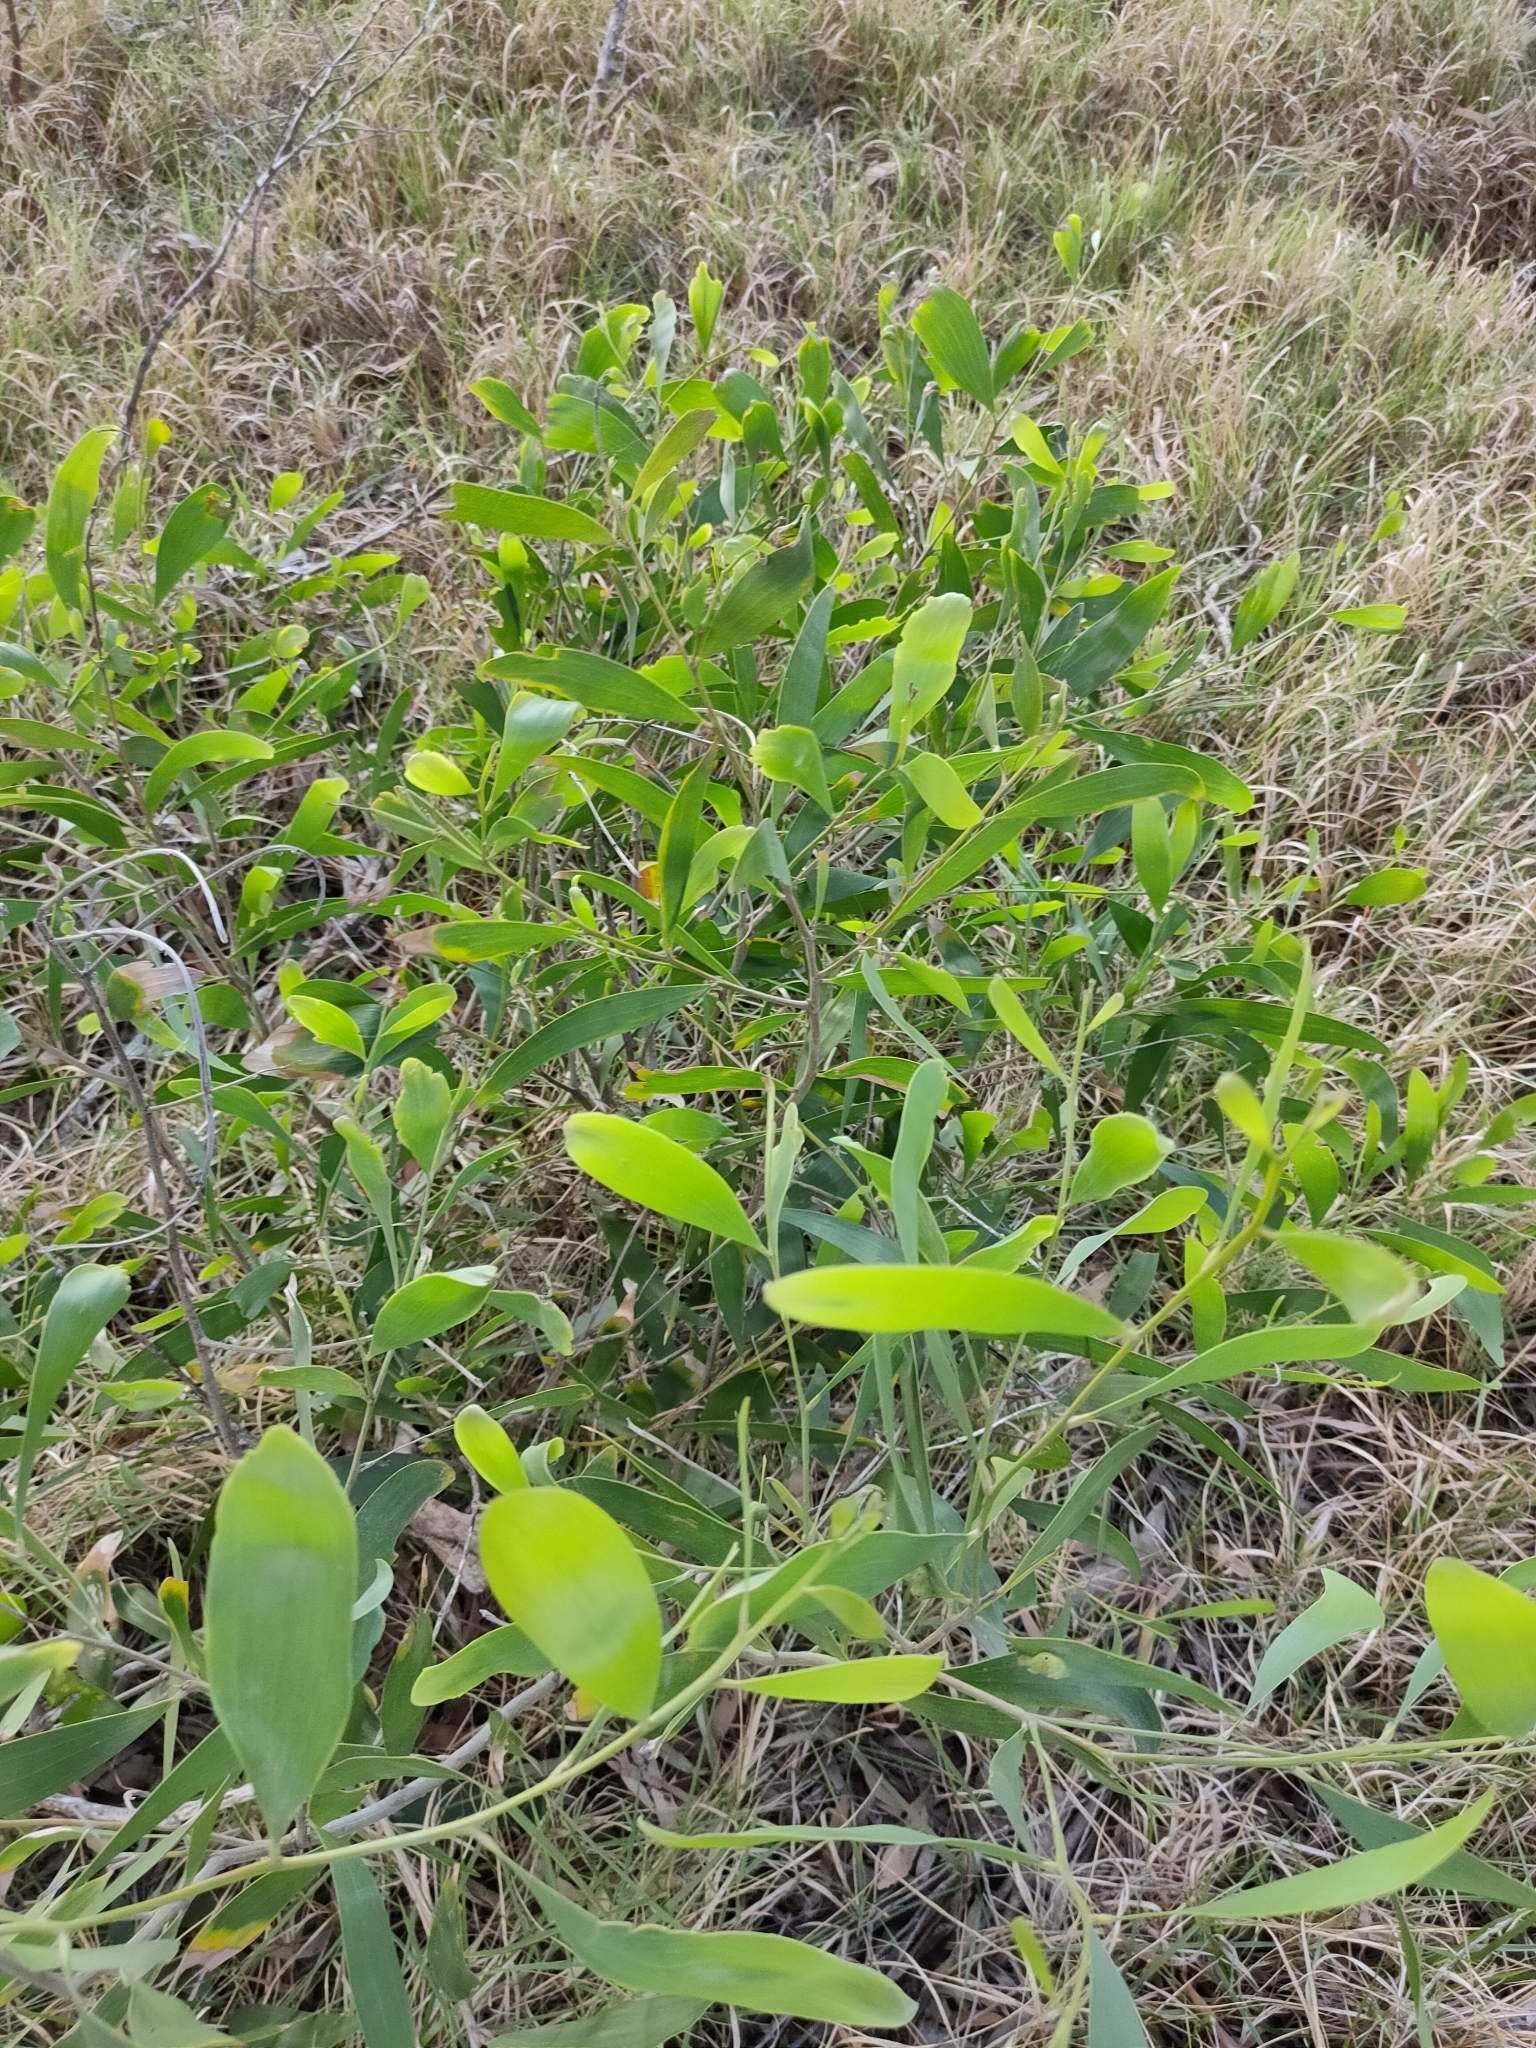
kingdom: Plantae
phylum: Tracheophyta
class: Magnoliopsida
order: Fabales
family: Fabaceae
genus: Acacia
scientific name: Acacia disparrima
